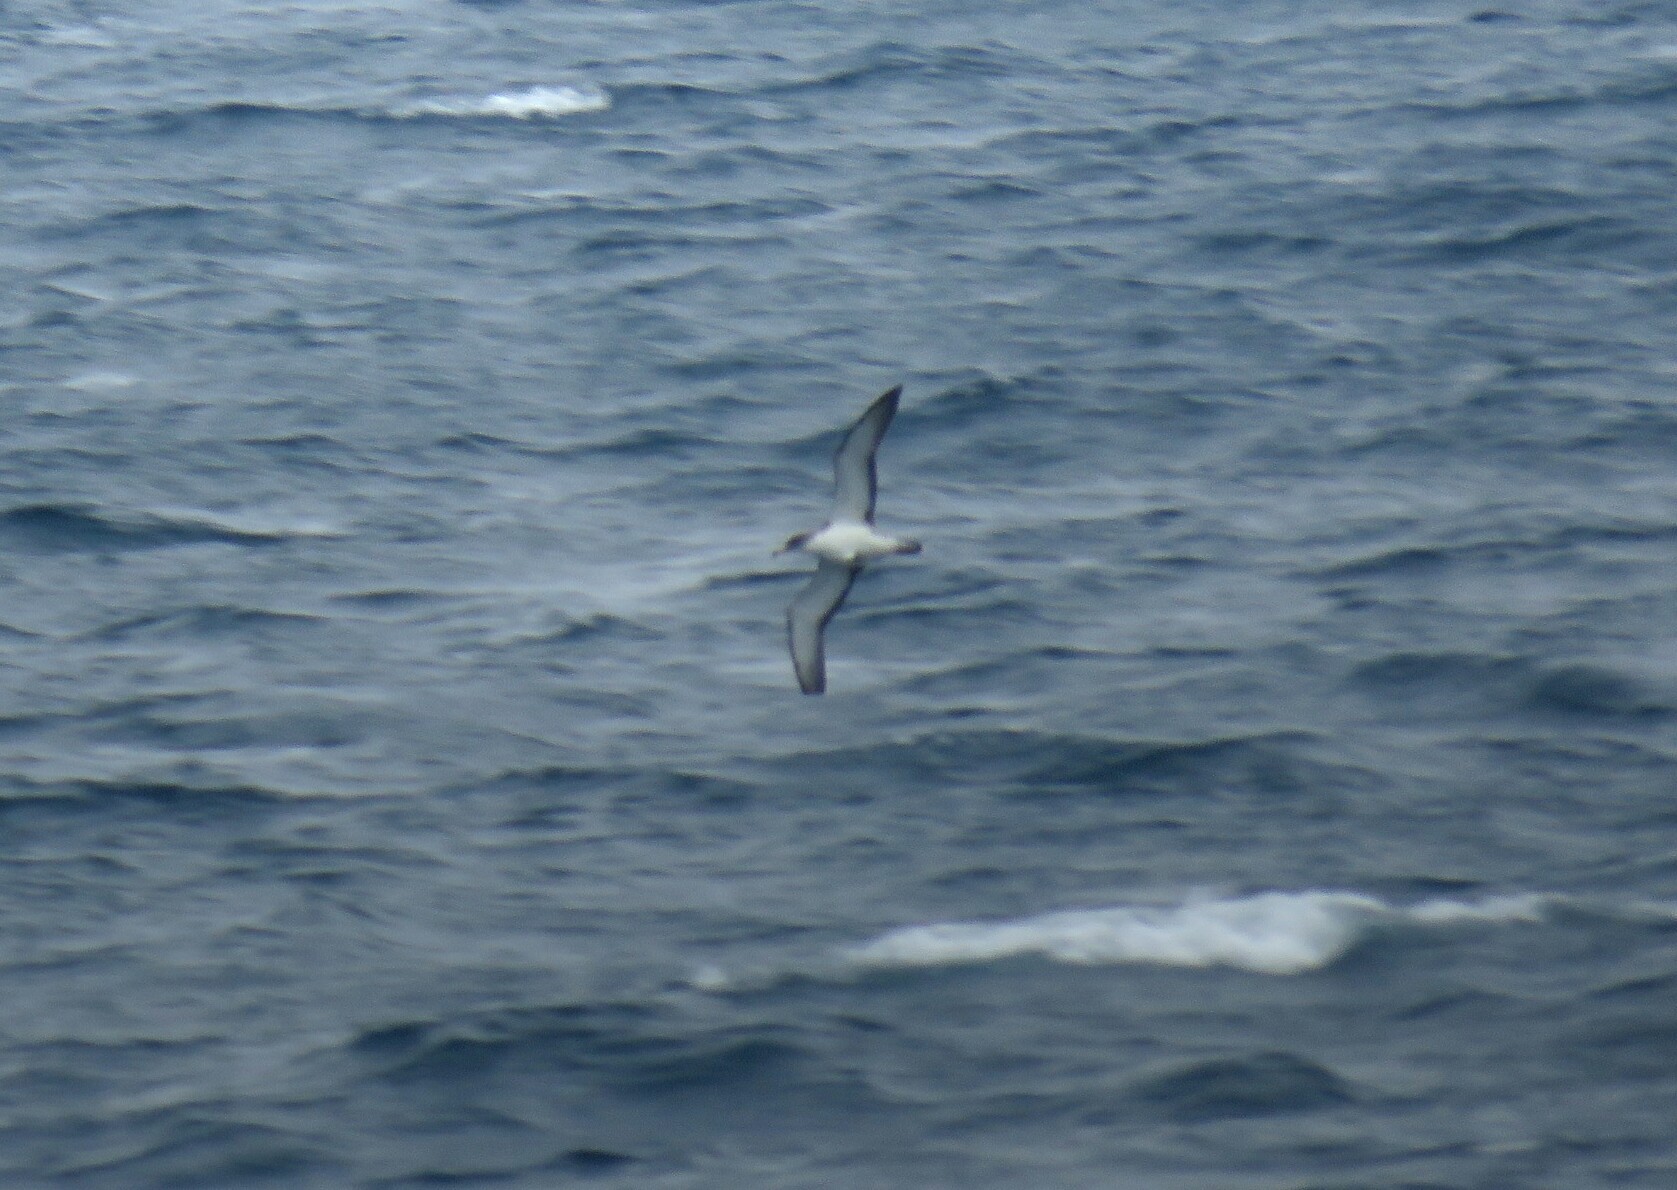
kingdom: Animalia
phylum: Chordata
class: Aves
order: Procellariiformes
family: Procellariidae
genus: Calonectris
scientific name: Calonectris diomedea
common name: Cory's shearwater
